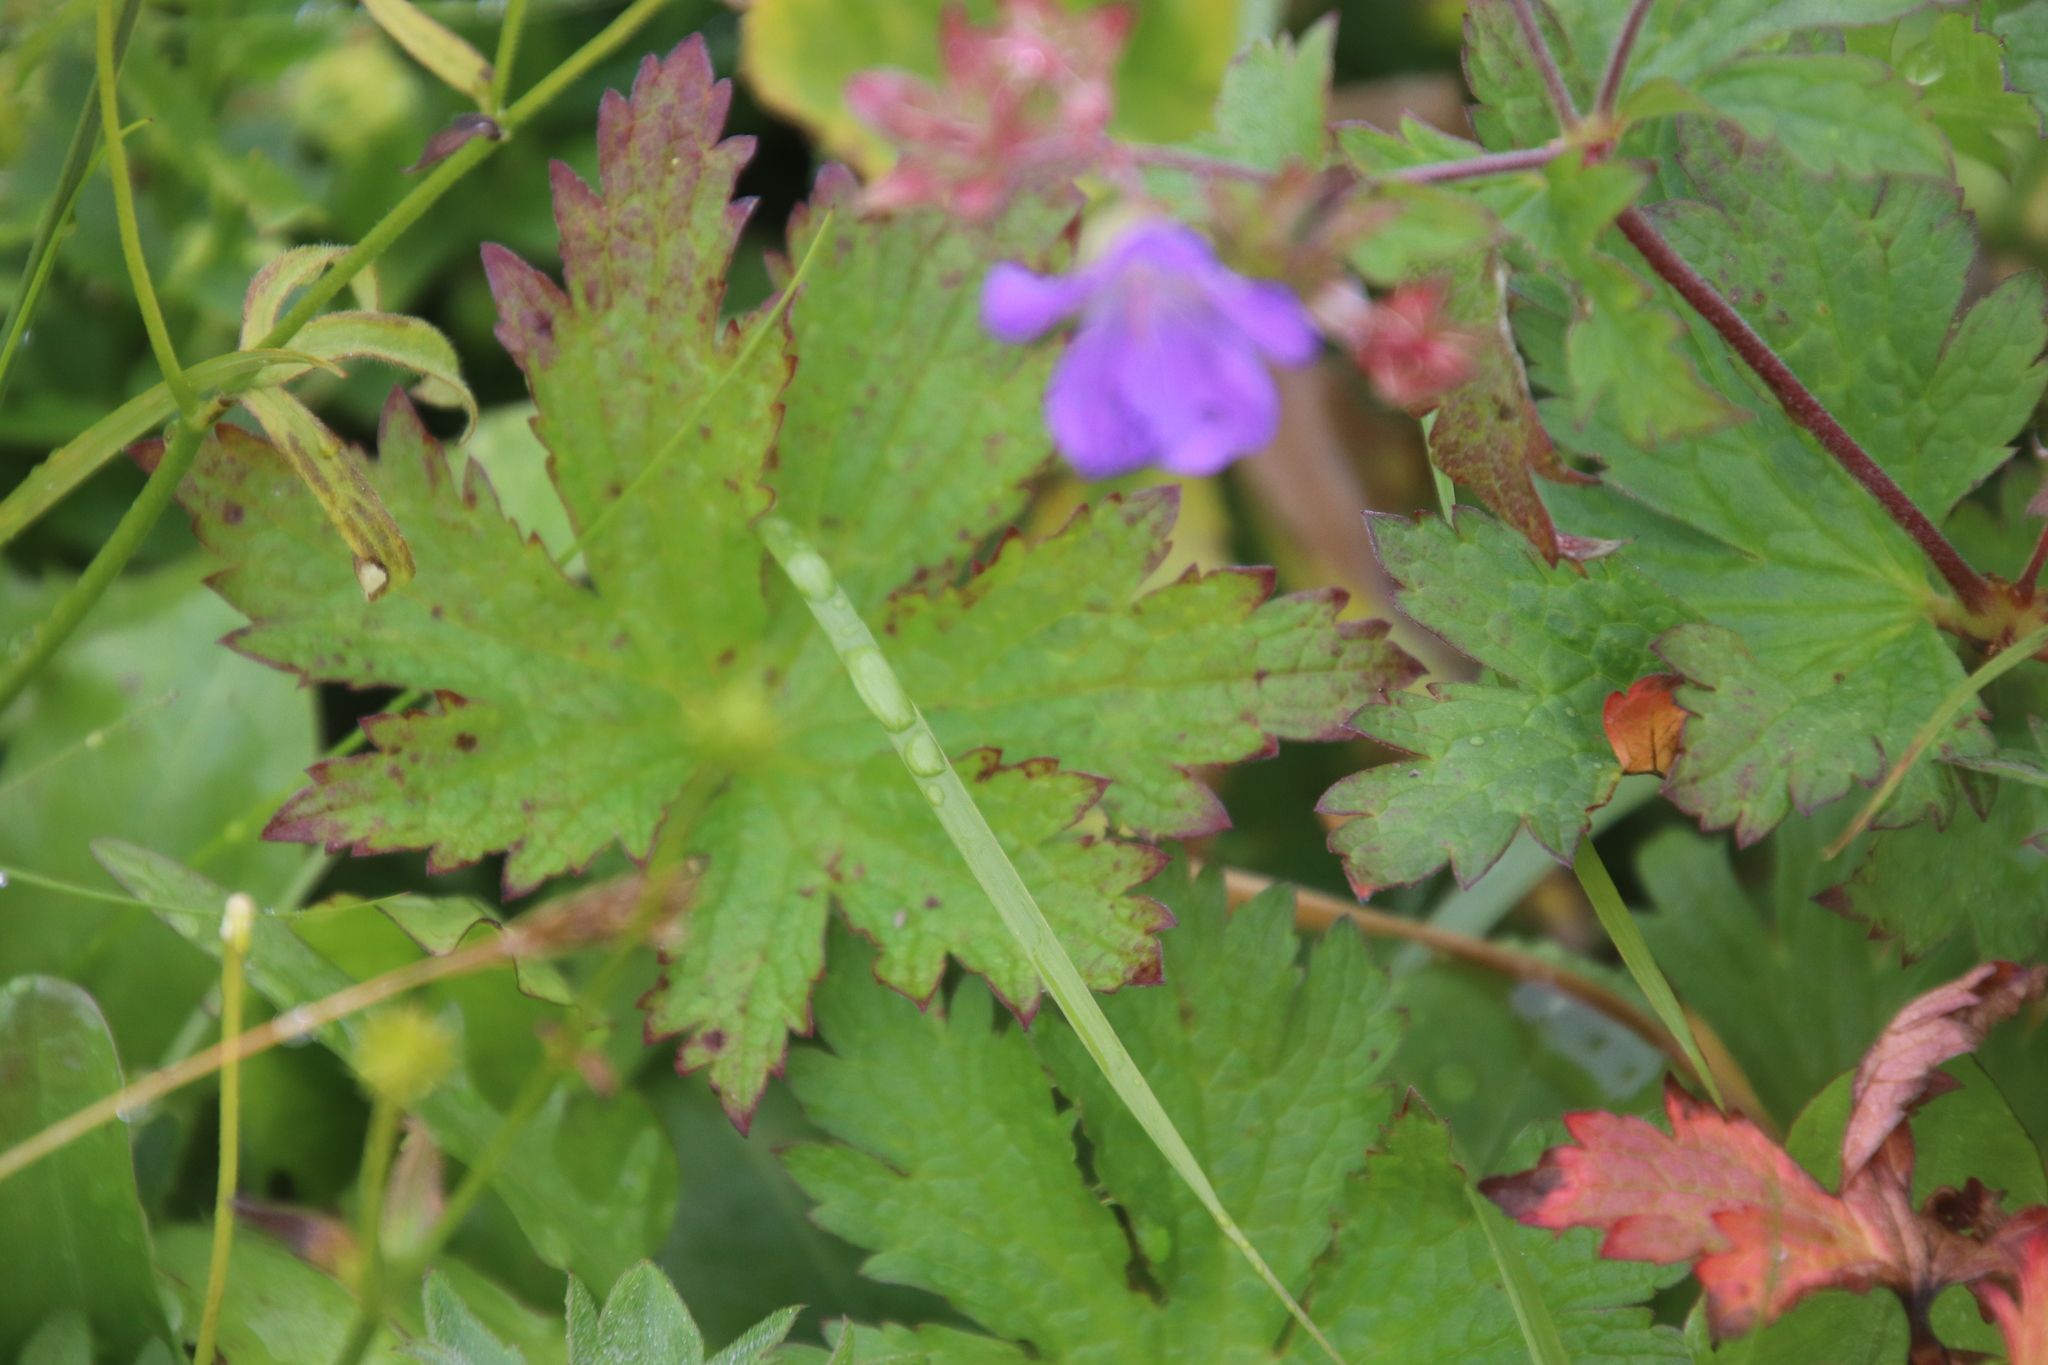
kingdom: Plantae
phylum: Tracheophyta
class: Magnoliopsida
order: Geraniales
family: Geraniaceae
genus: Geranium
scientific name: Geranium sylvaticum
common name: Wood crane's-bill
